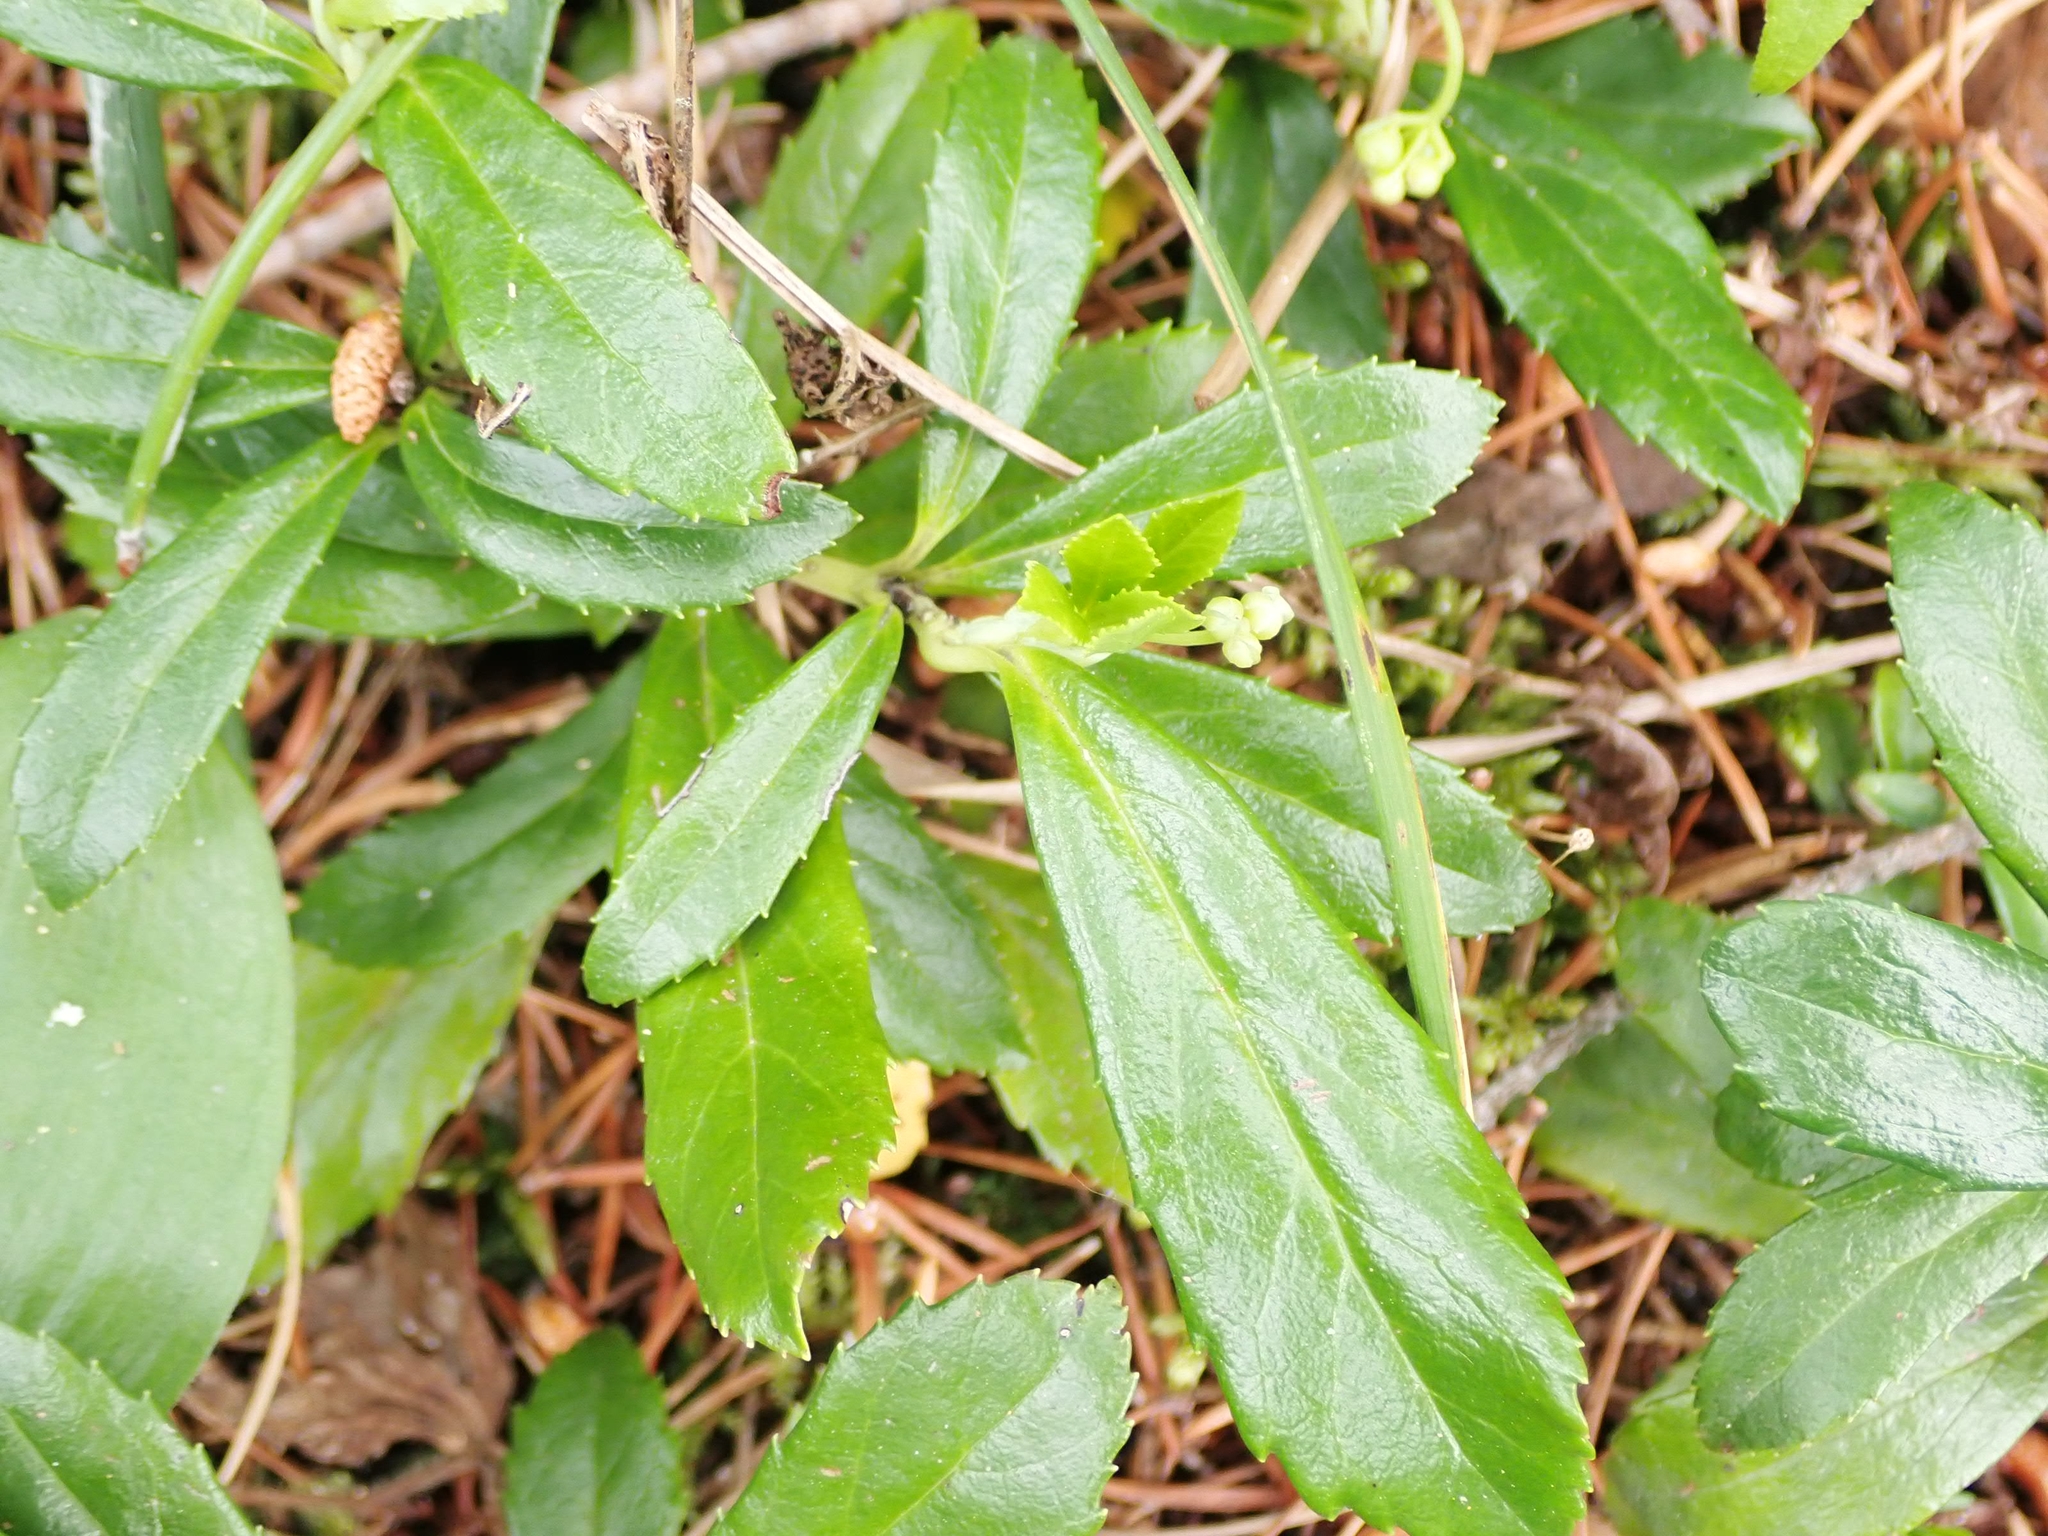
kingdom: Plantae
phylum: Tracheophyta
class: Magnoliopsida
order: Ericales
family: Ericaceae
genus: Chimaphila
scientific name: Chimaphila umbellata
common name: Pipsissewa
